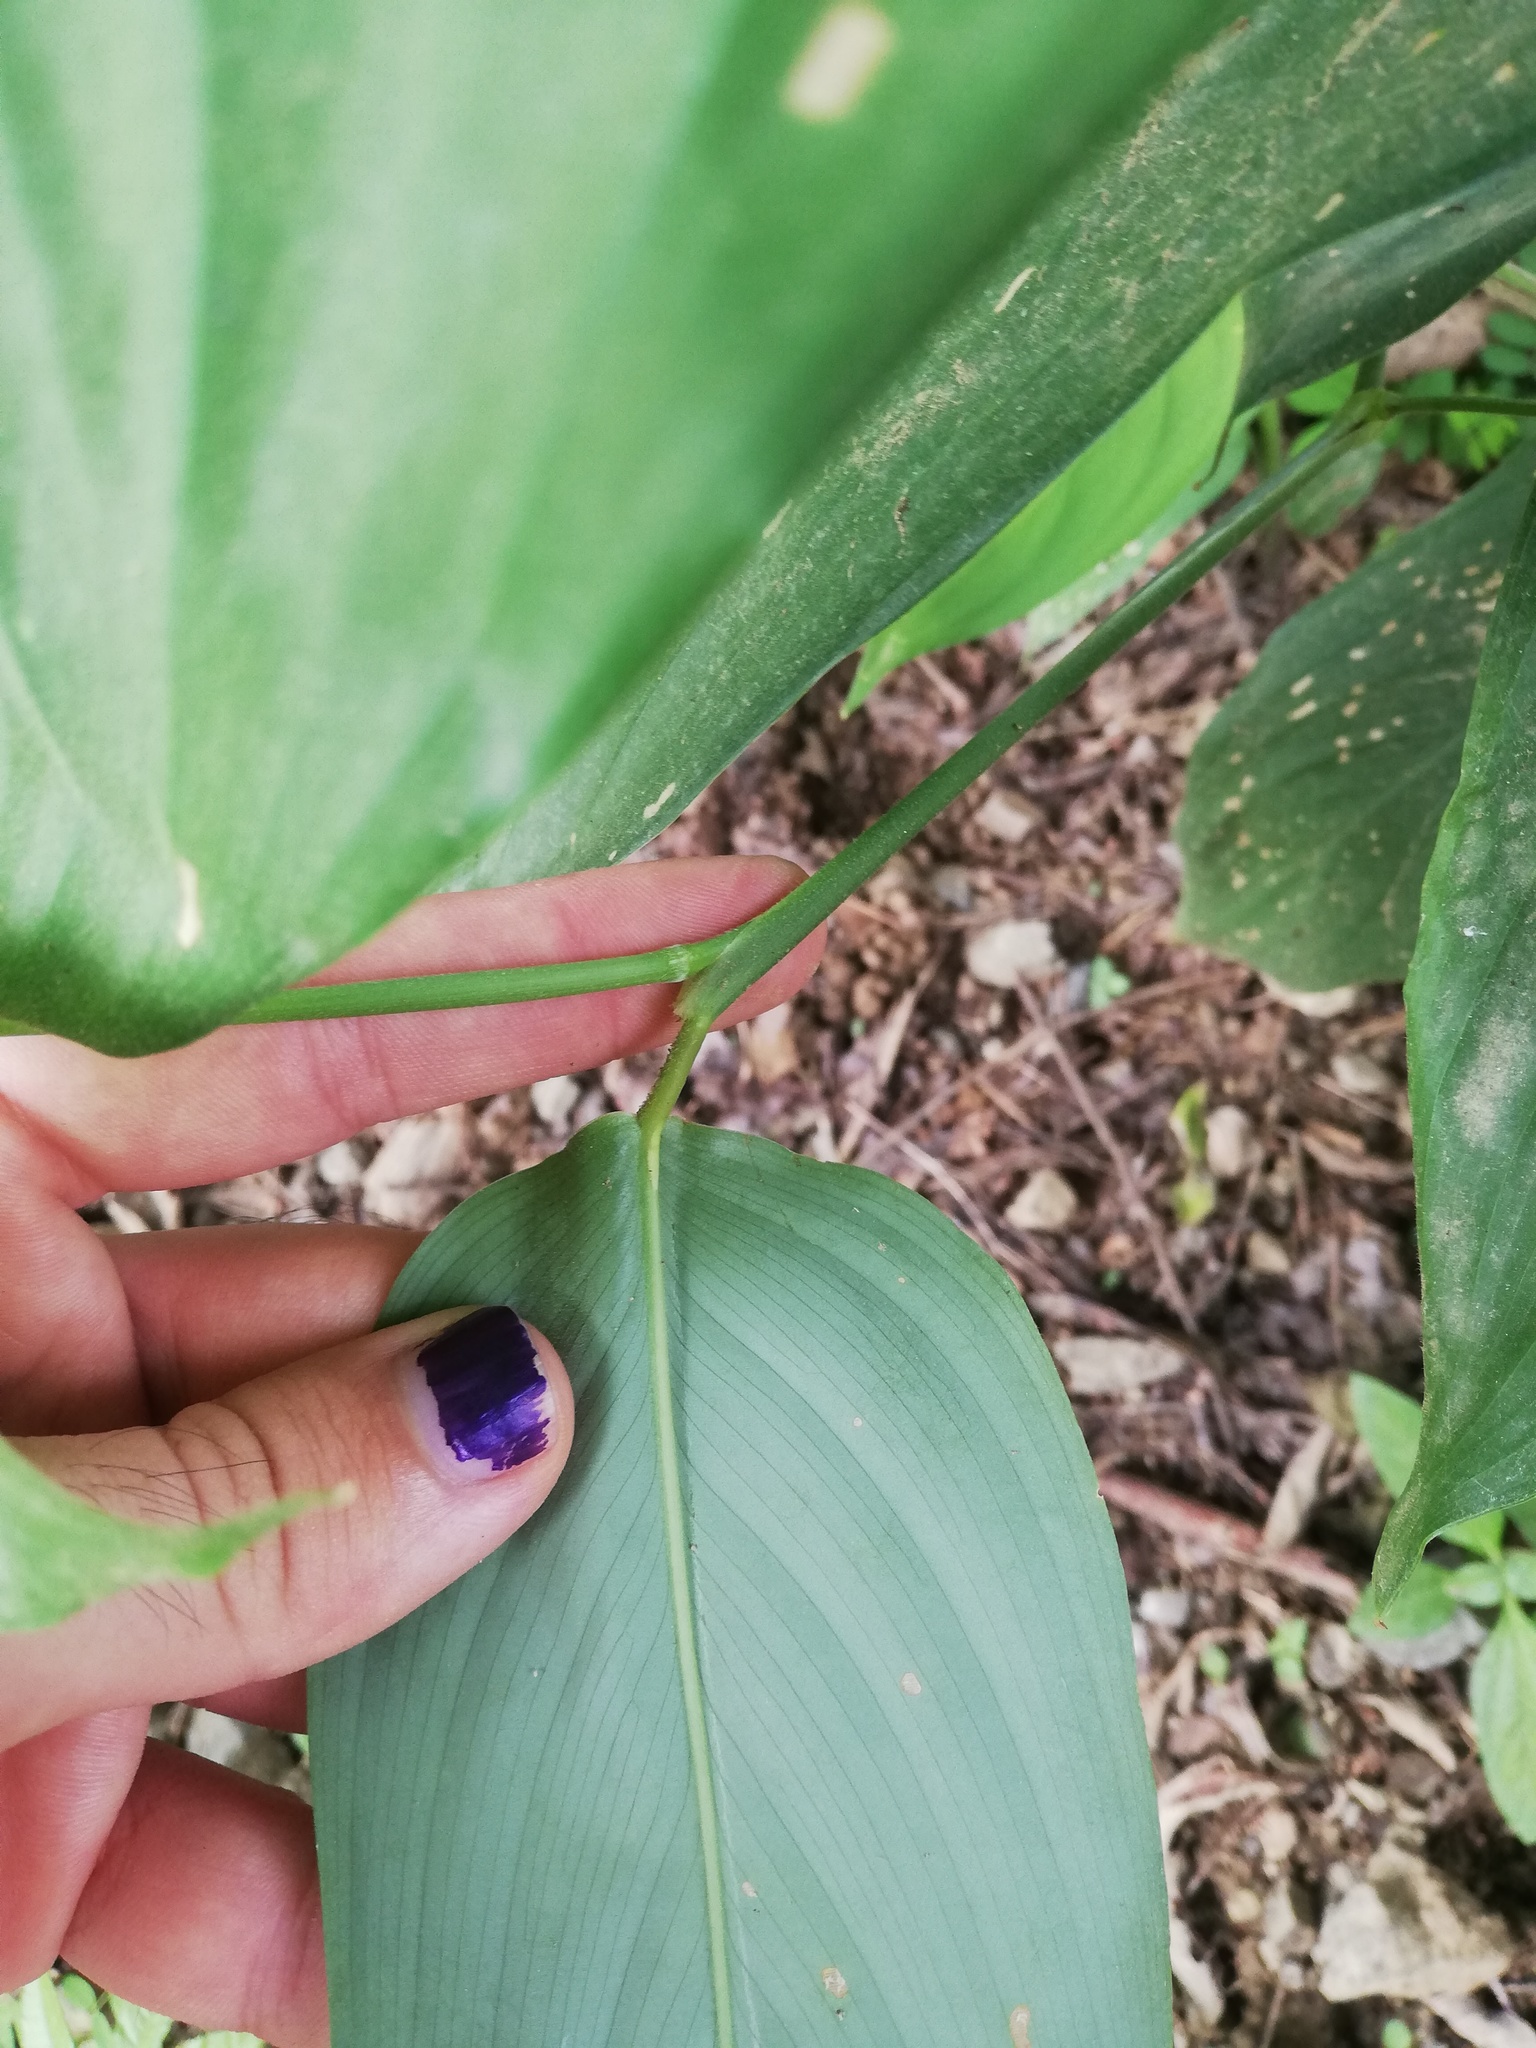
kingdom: Plantae
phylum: Tracheophyta
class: Liliopsida
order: Zingiberales
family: Marantaceae
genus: Maranta
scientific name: Maranta arundinacea
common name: Arrowroot
